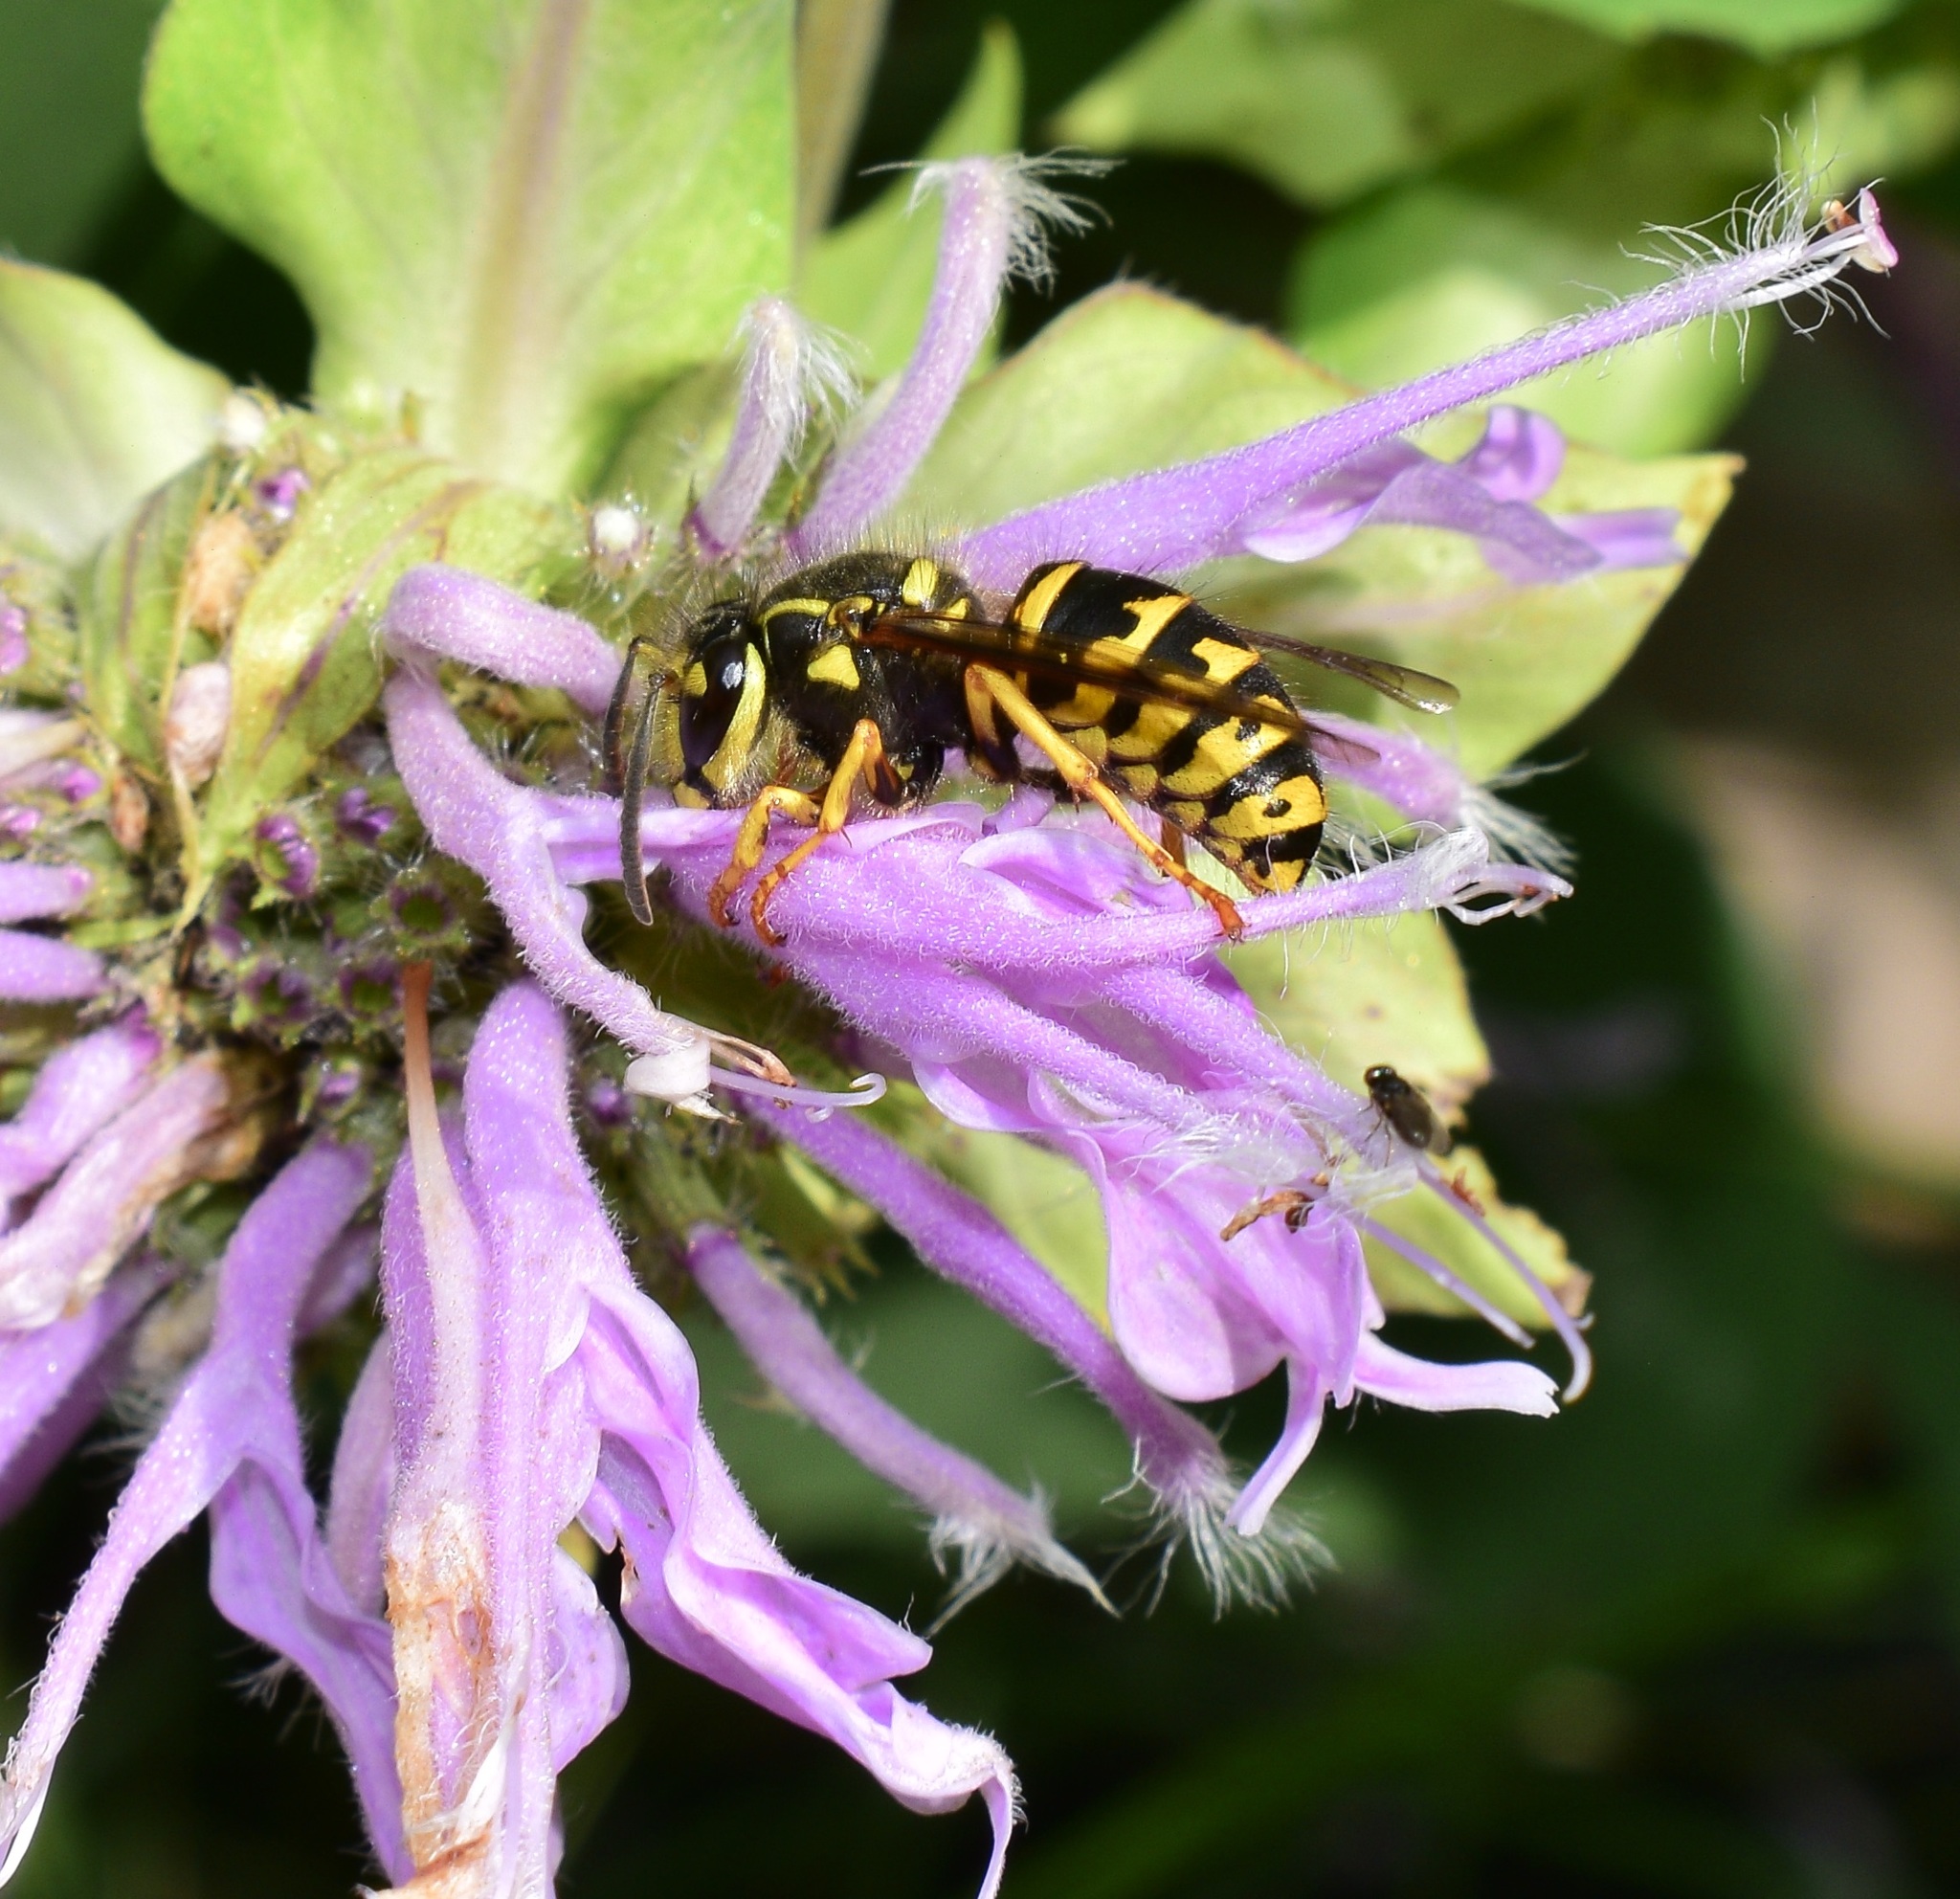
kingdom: Animalia
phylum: Arthropoda
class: Insecta
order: Hymenoptera
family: Vespidae
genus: Dolichovespula
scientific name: Dolichovespula arenaria
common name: Aerial yellowjacket
